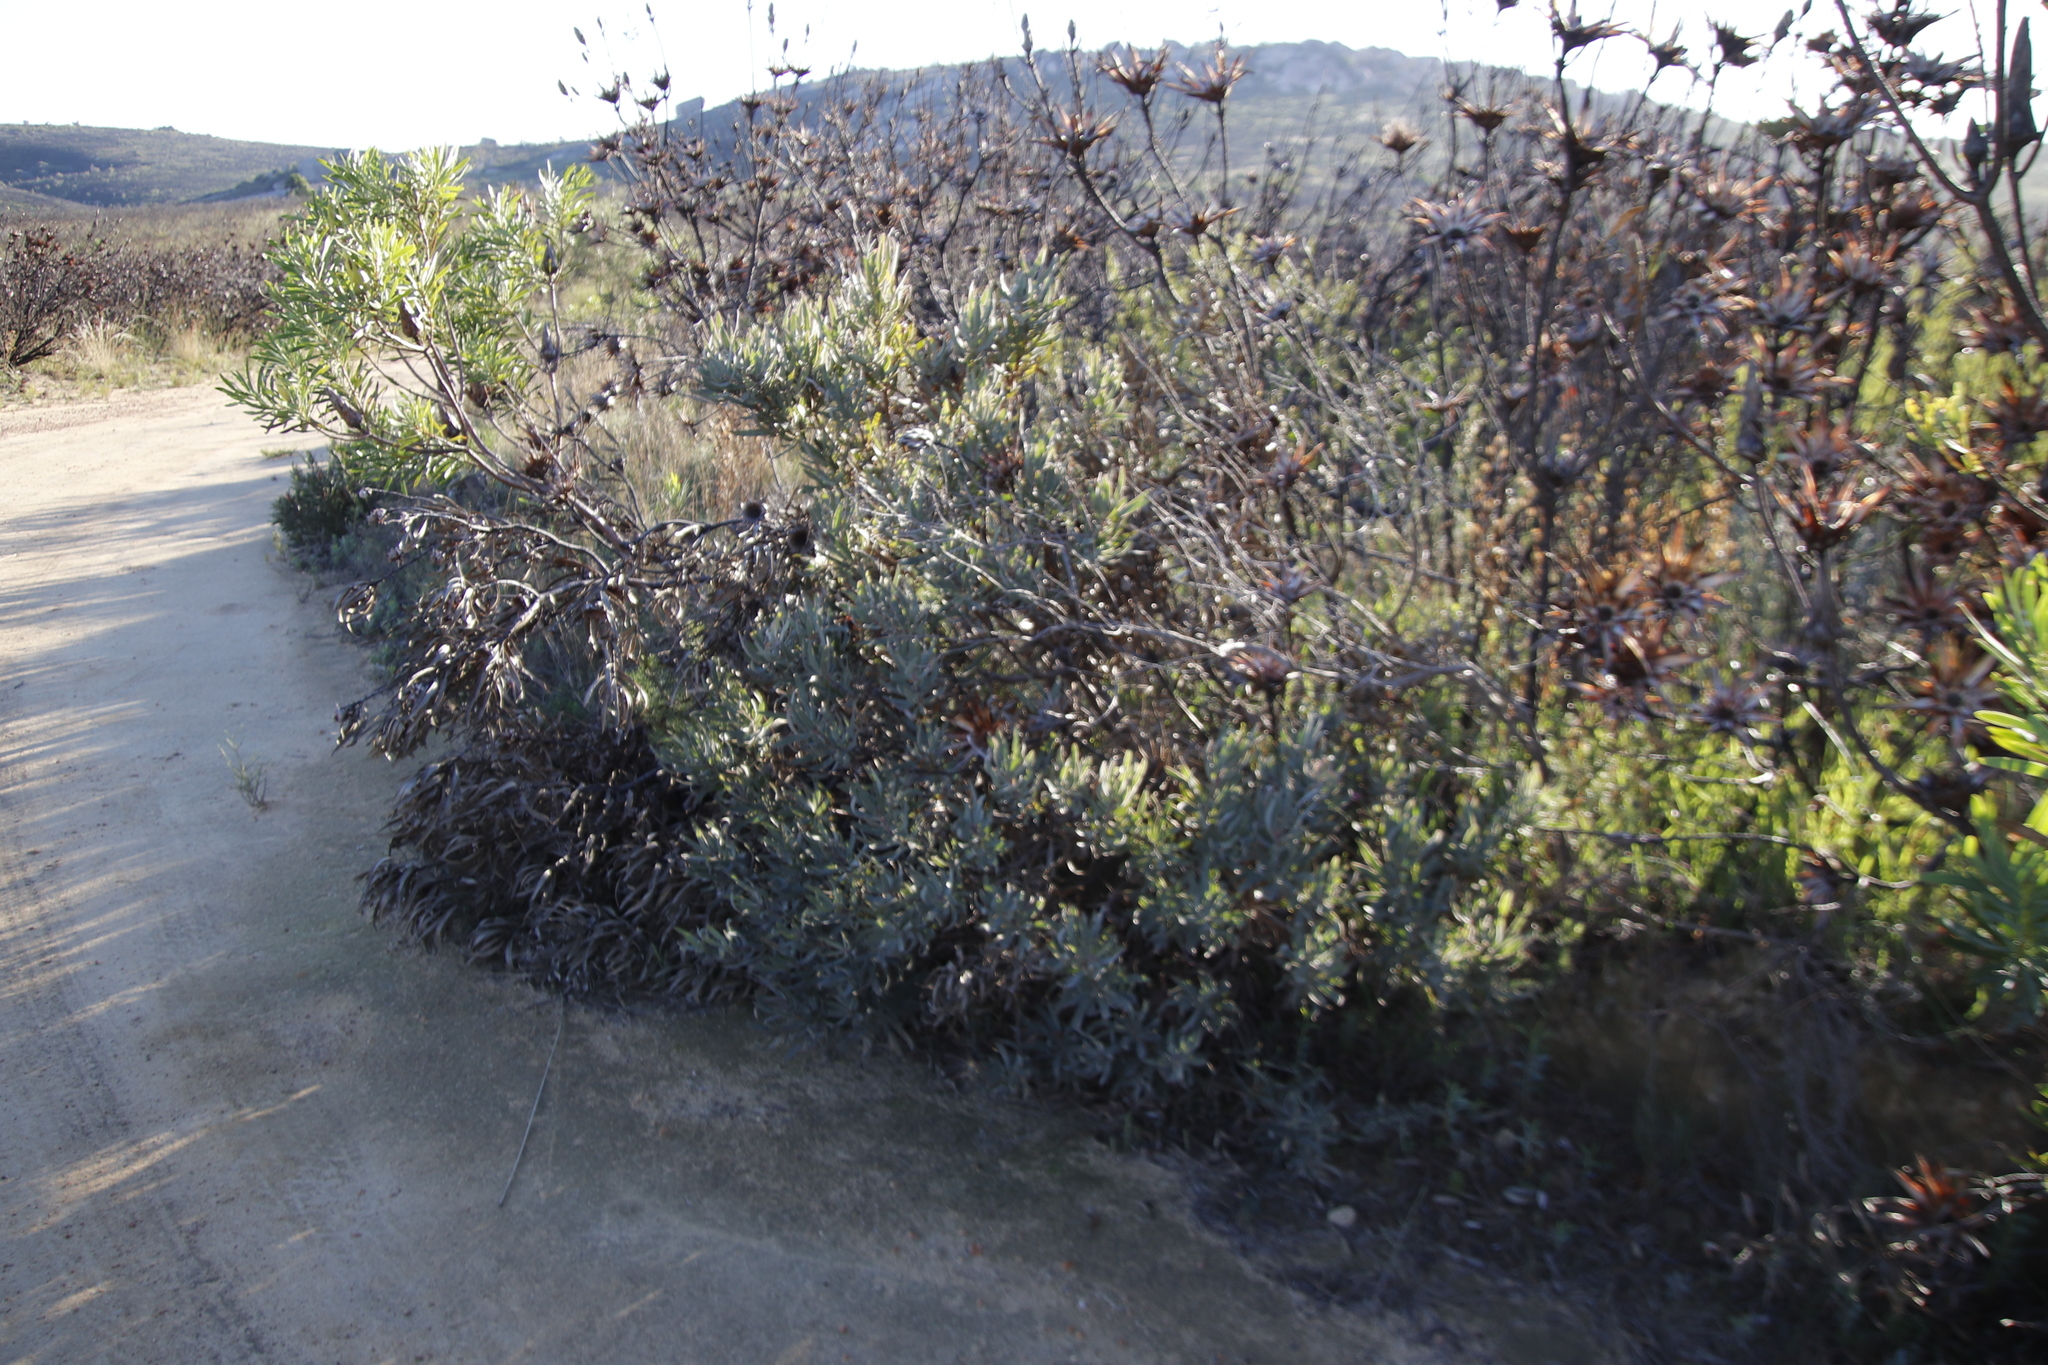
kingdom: Plantae
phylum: Tracheophyta
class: Magnoliopsida
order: Proteales
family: Proteaceae
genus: Protea
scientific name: Protea burchellii
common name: Burchell's sugarbush
